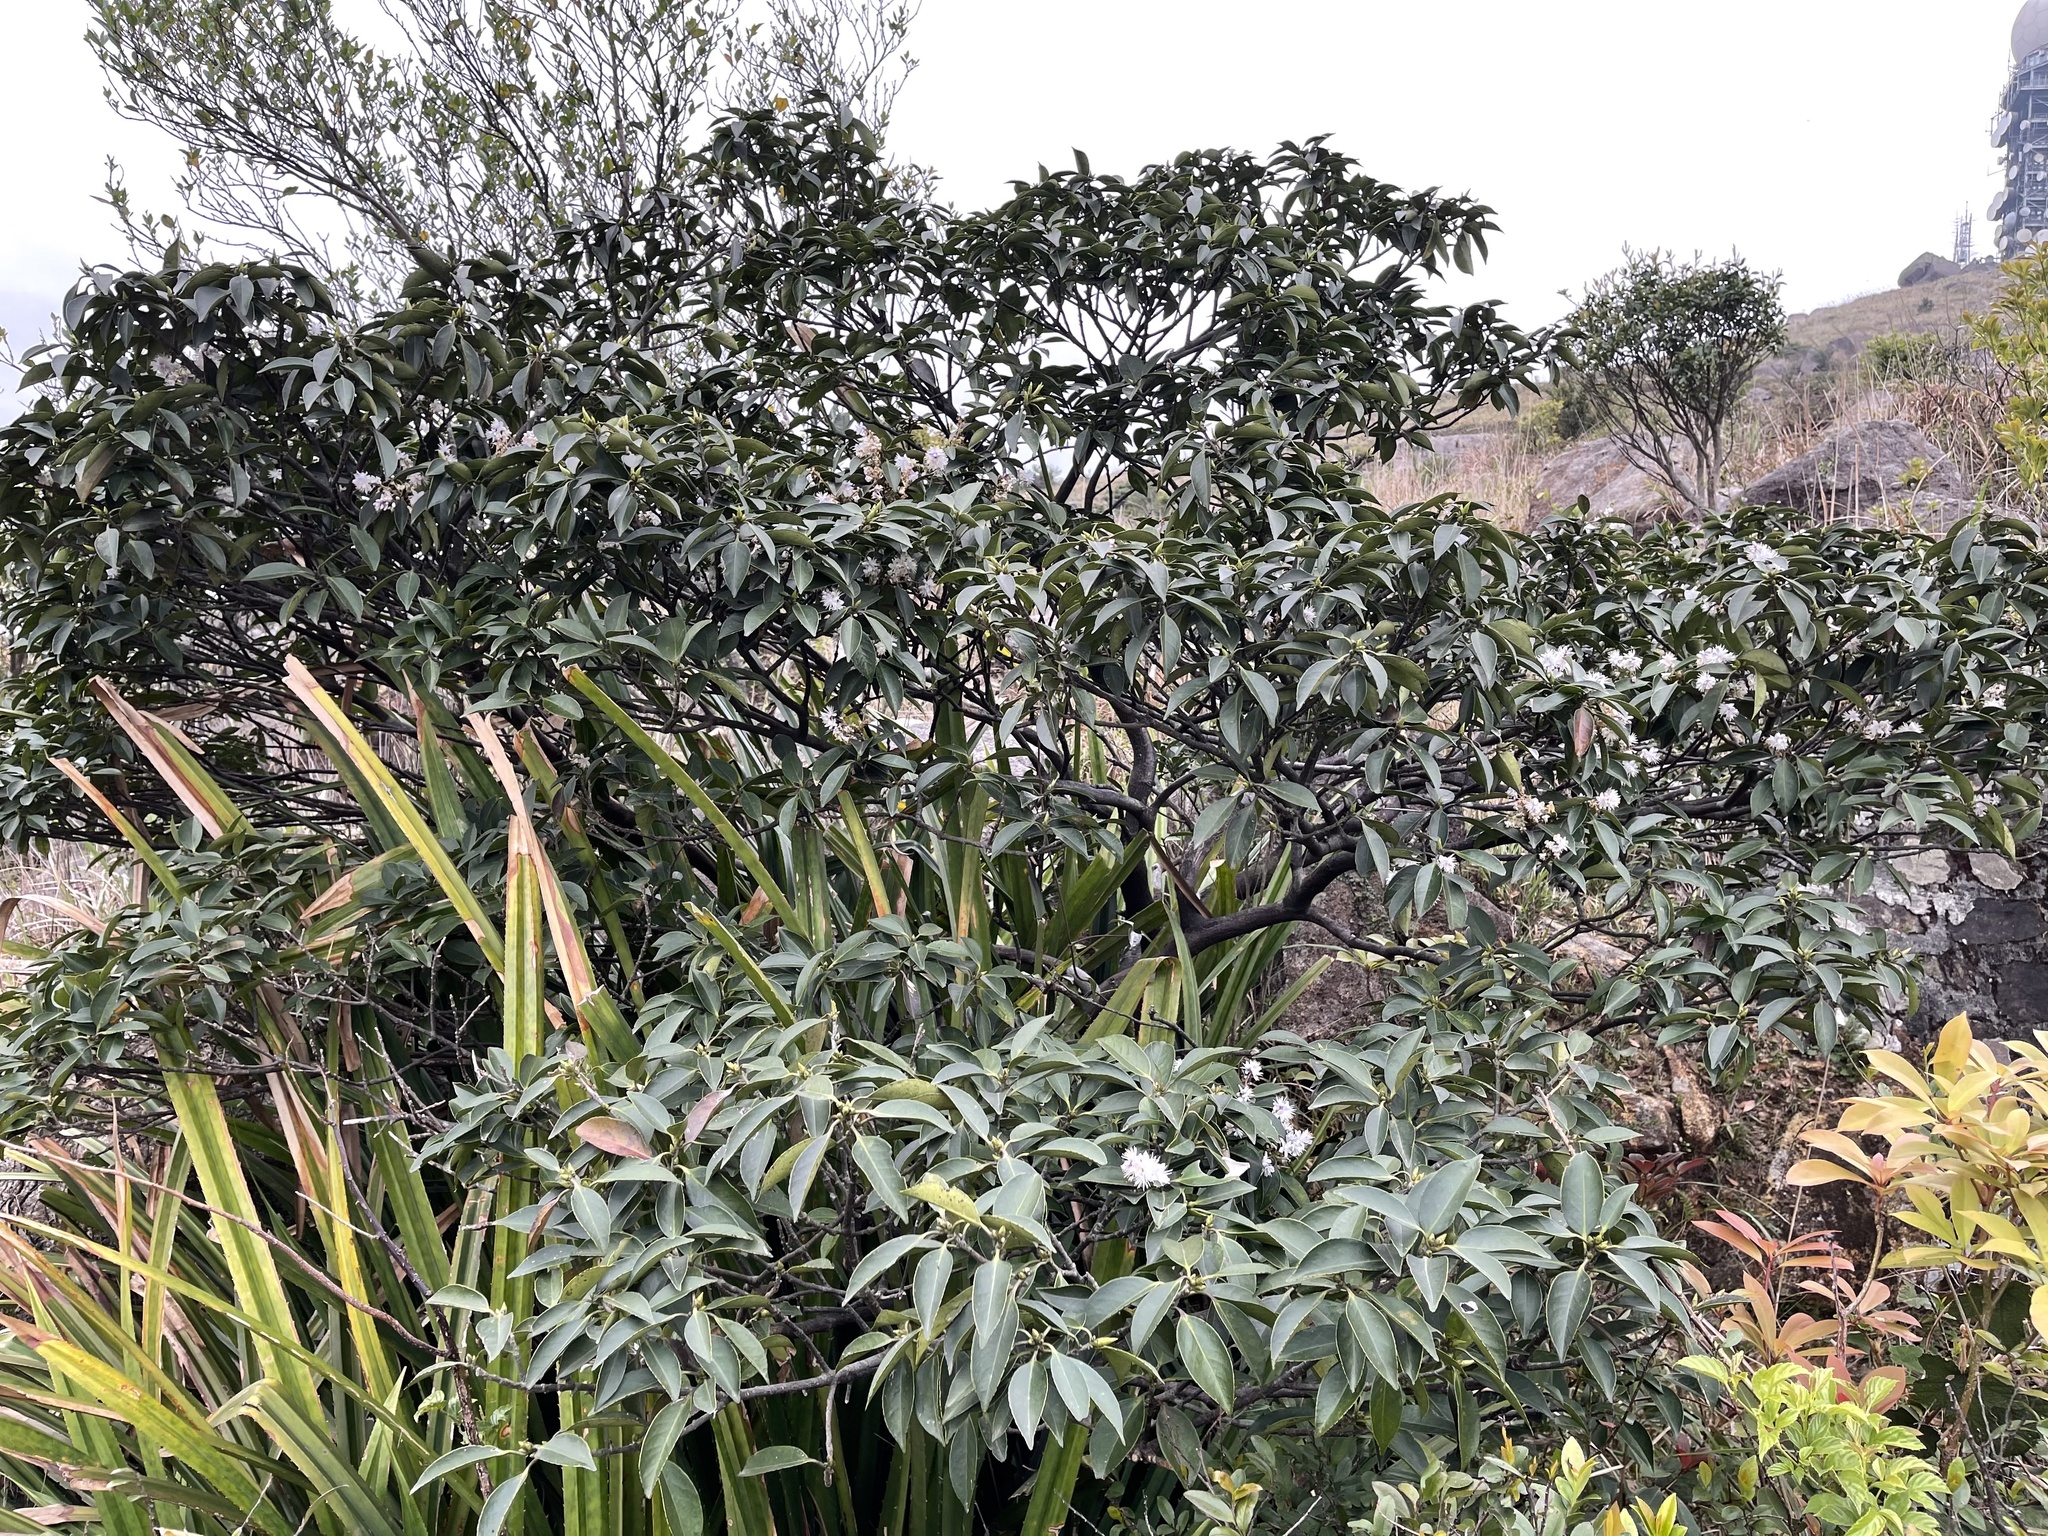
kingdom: Plantae
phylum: Tracheophyta
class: Magnoliopsida
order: Ericales
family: Symplocaceae
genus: Symplocos
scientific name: Symplocos sumuntia
